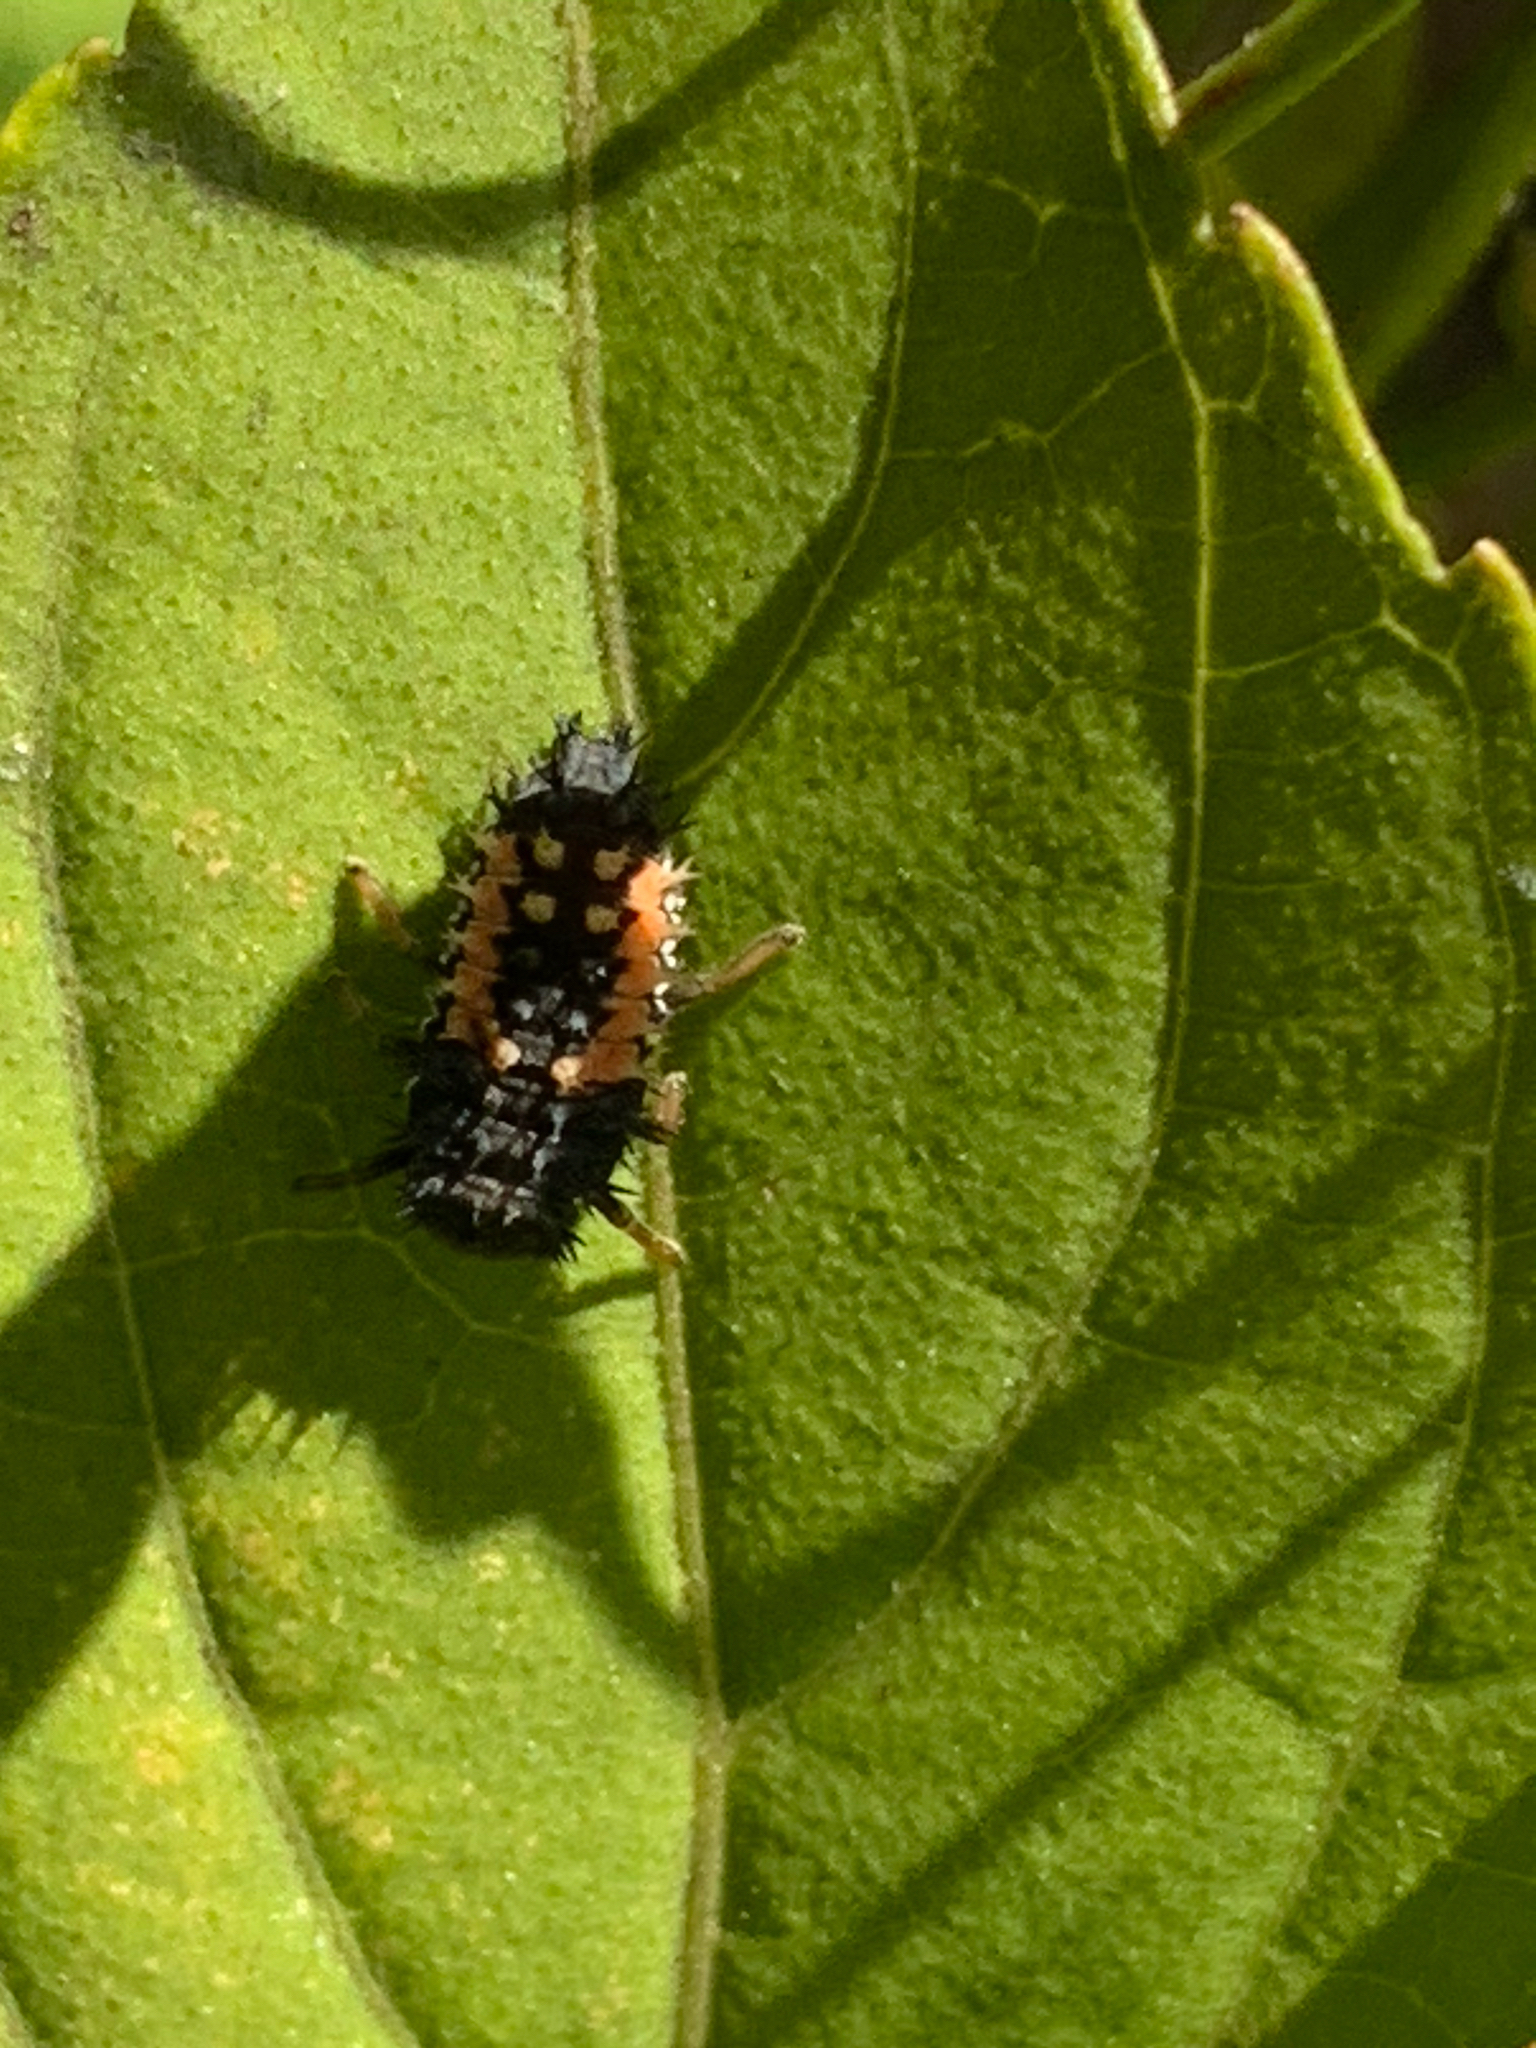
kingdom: Animalia
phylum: Arthropoda
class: Insecta
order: Coleoptera
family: Coccinellidae
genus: Harmonia
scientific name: Harmonia axyridis
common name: Harlequin ladybird
